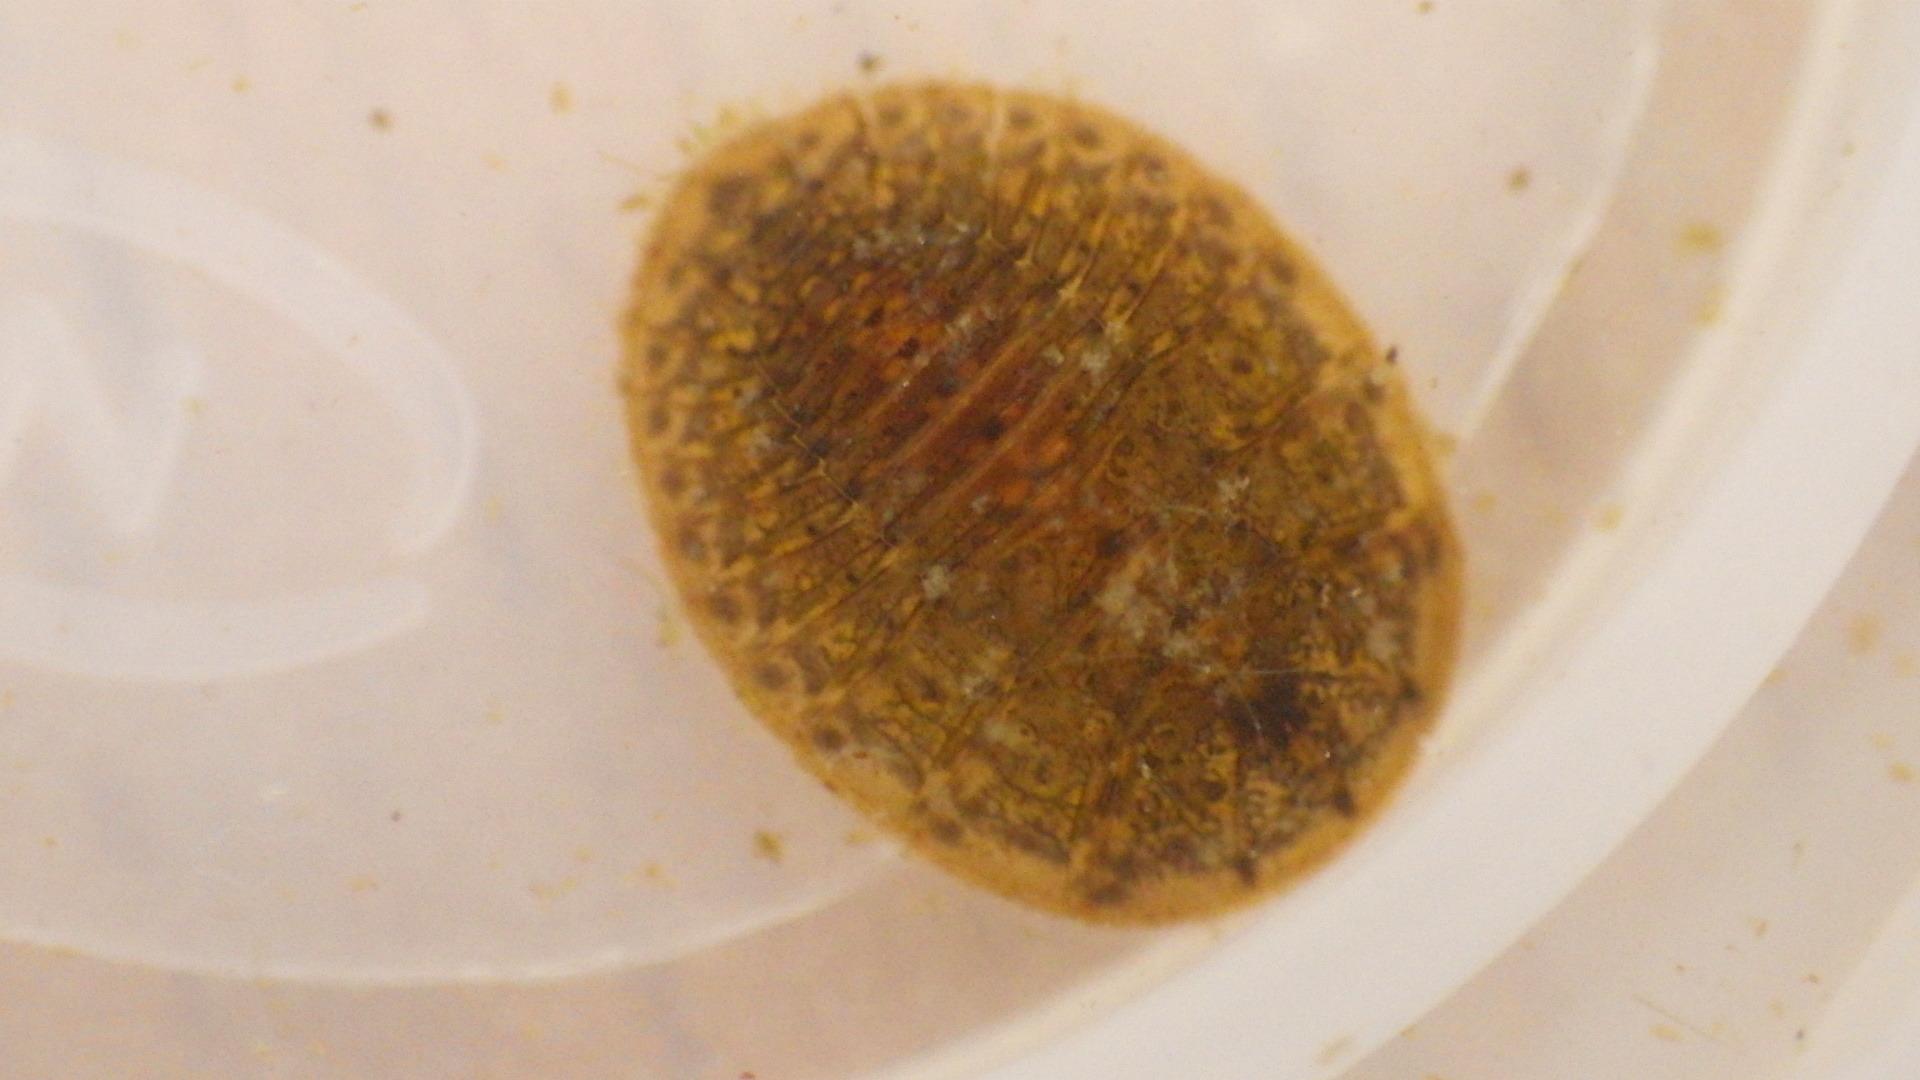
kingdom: Animalia
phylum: Arthropoda
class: Insecta
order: Coleoptera
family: Psephenidae
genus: Psephenus
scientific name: Psephenus herricki
